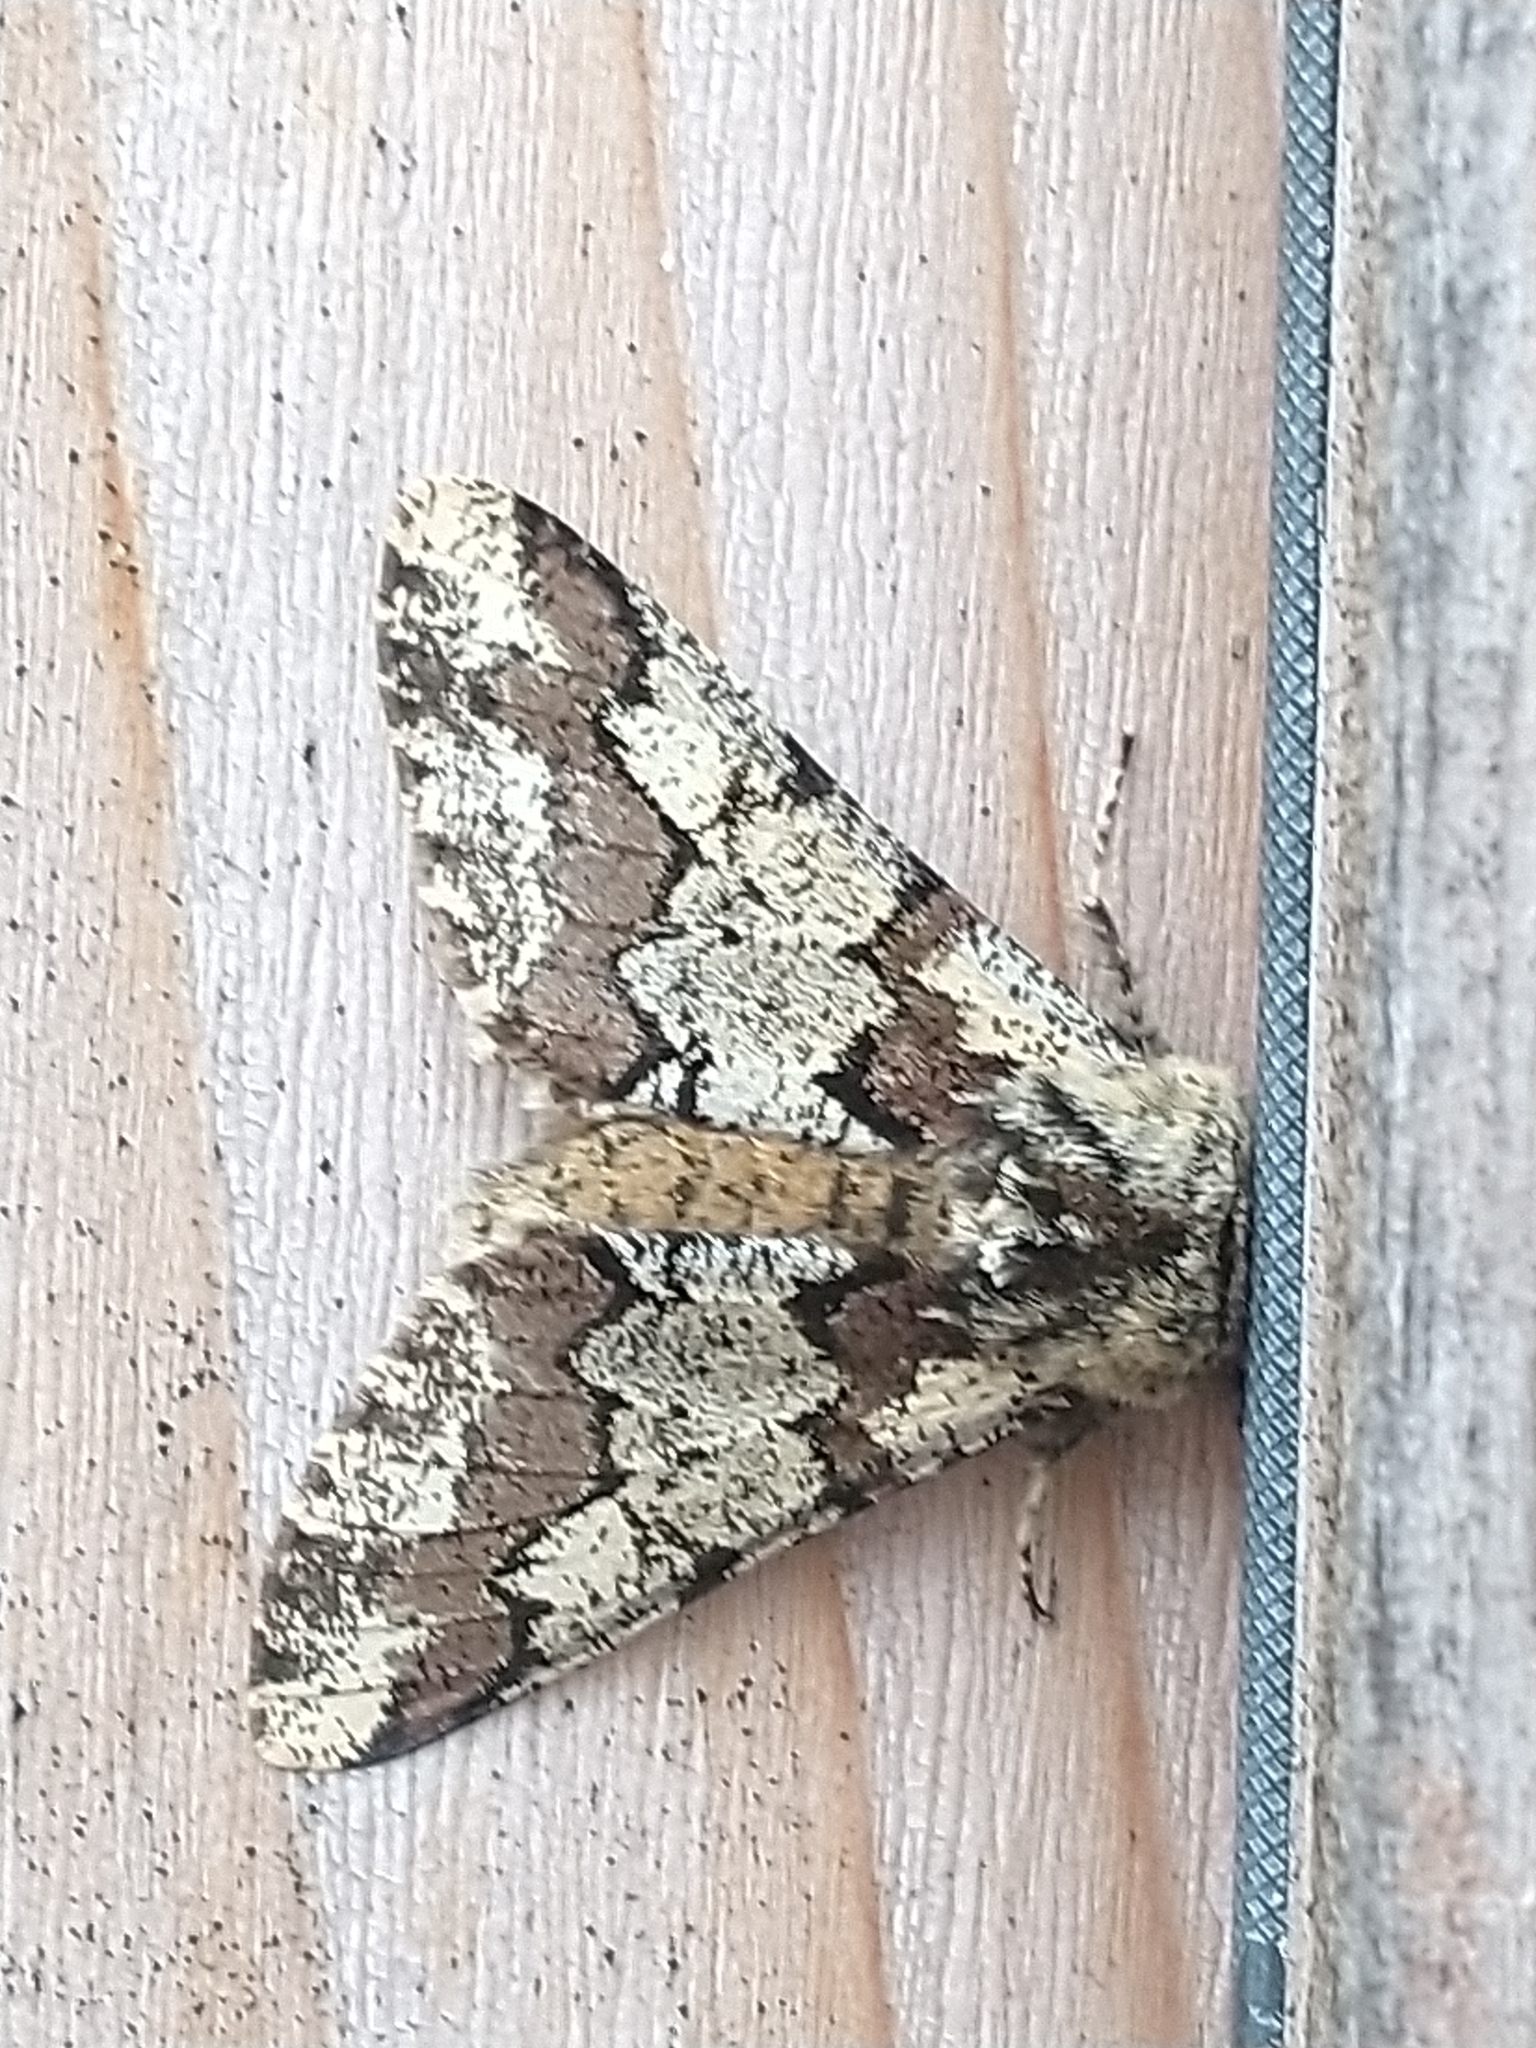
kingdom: Animalia
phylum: Arthropoda
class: Insecta
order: Lepidoptera
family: Geometridae
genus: Biston
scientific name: Biston strataria
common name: Oak beauty
